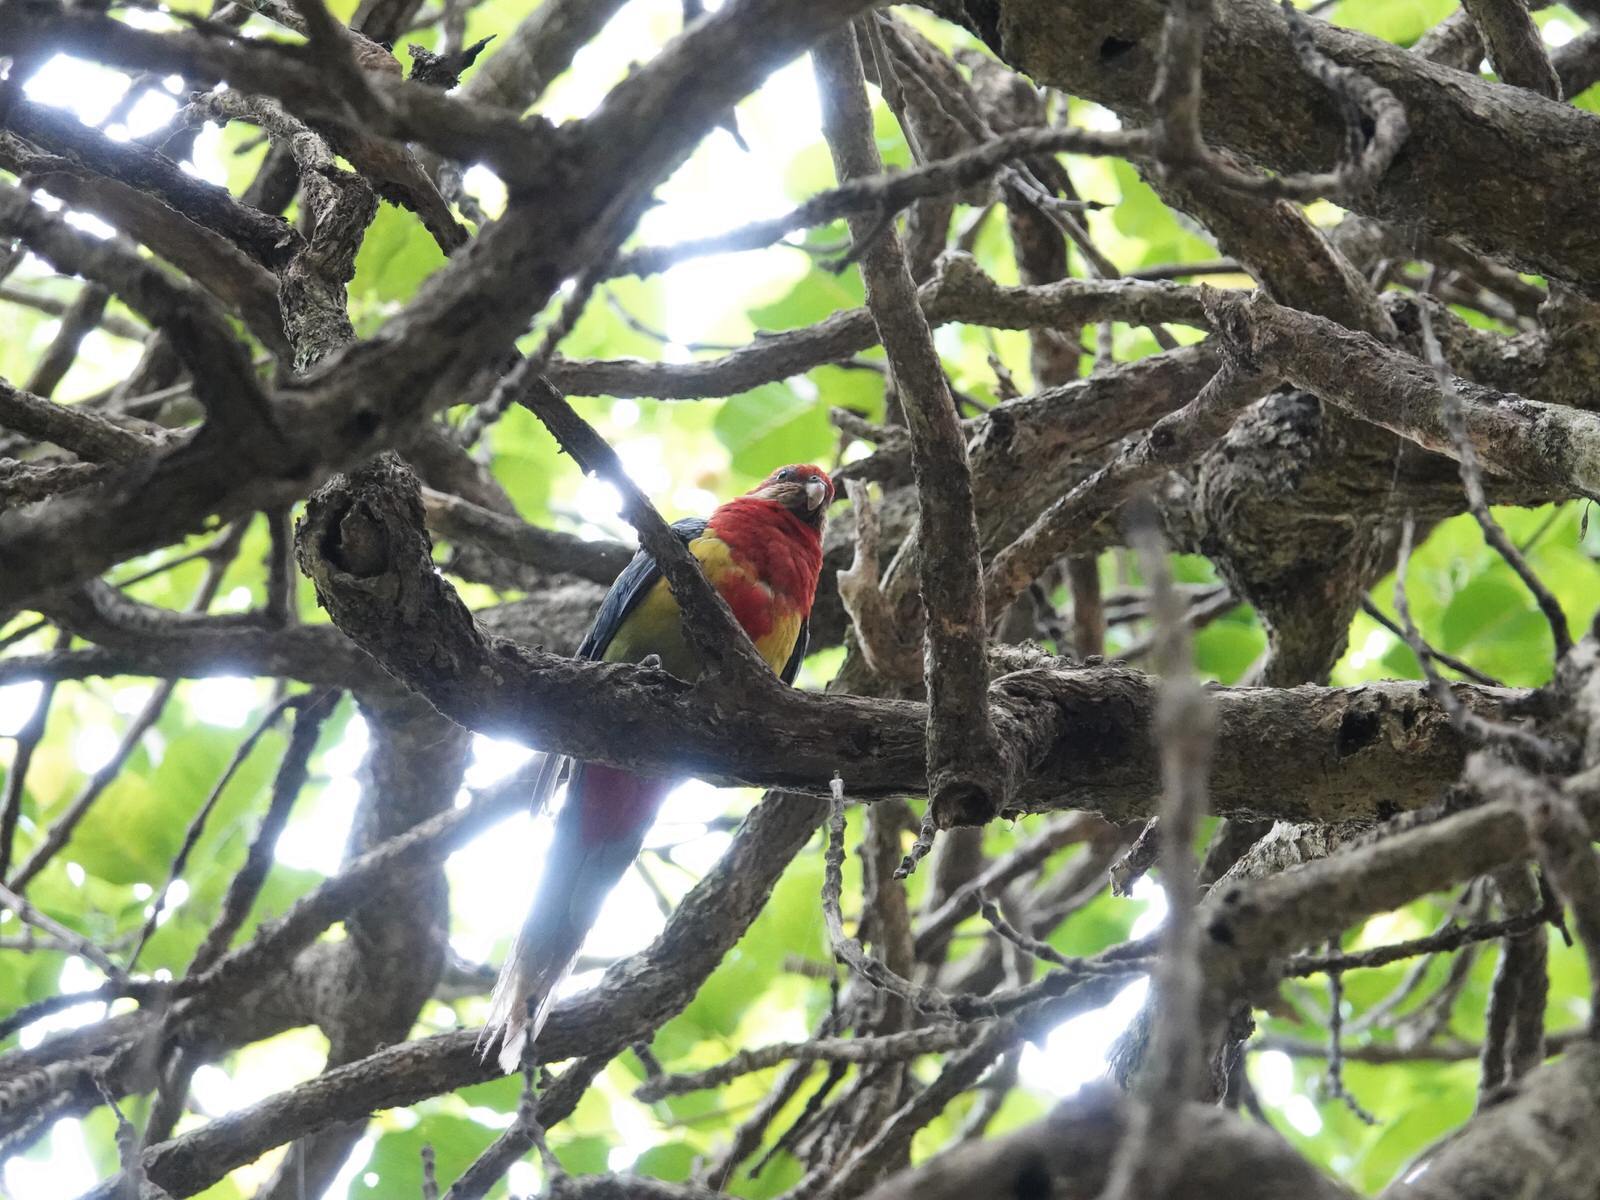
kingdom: Animalia
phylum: Chordata
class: Aves
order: Psittaciformes
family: Psittacidae
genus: Platycercus
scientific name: Platycercus eximius
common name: Eastern rosella
